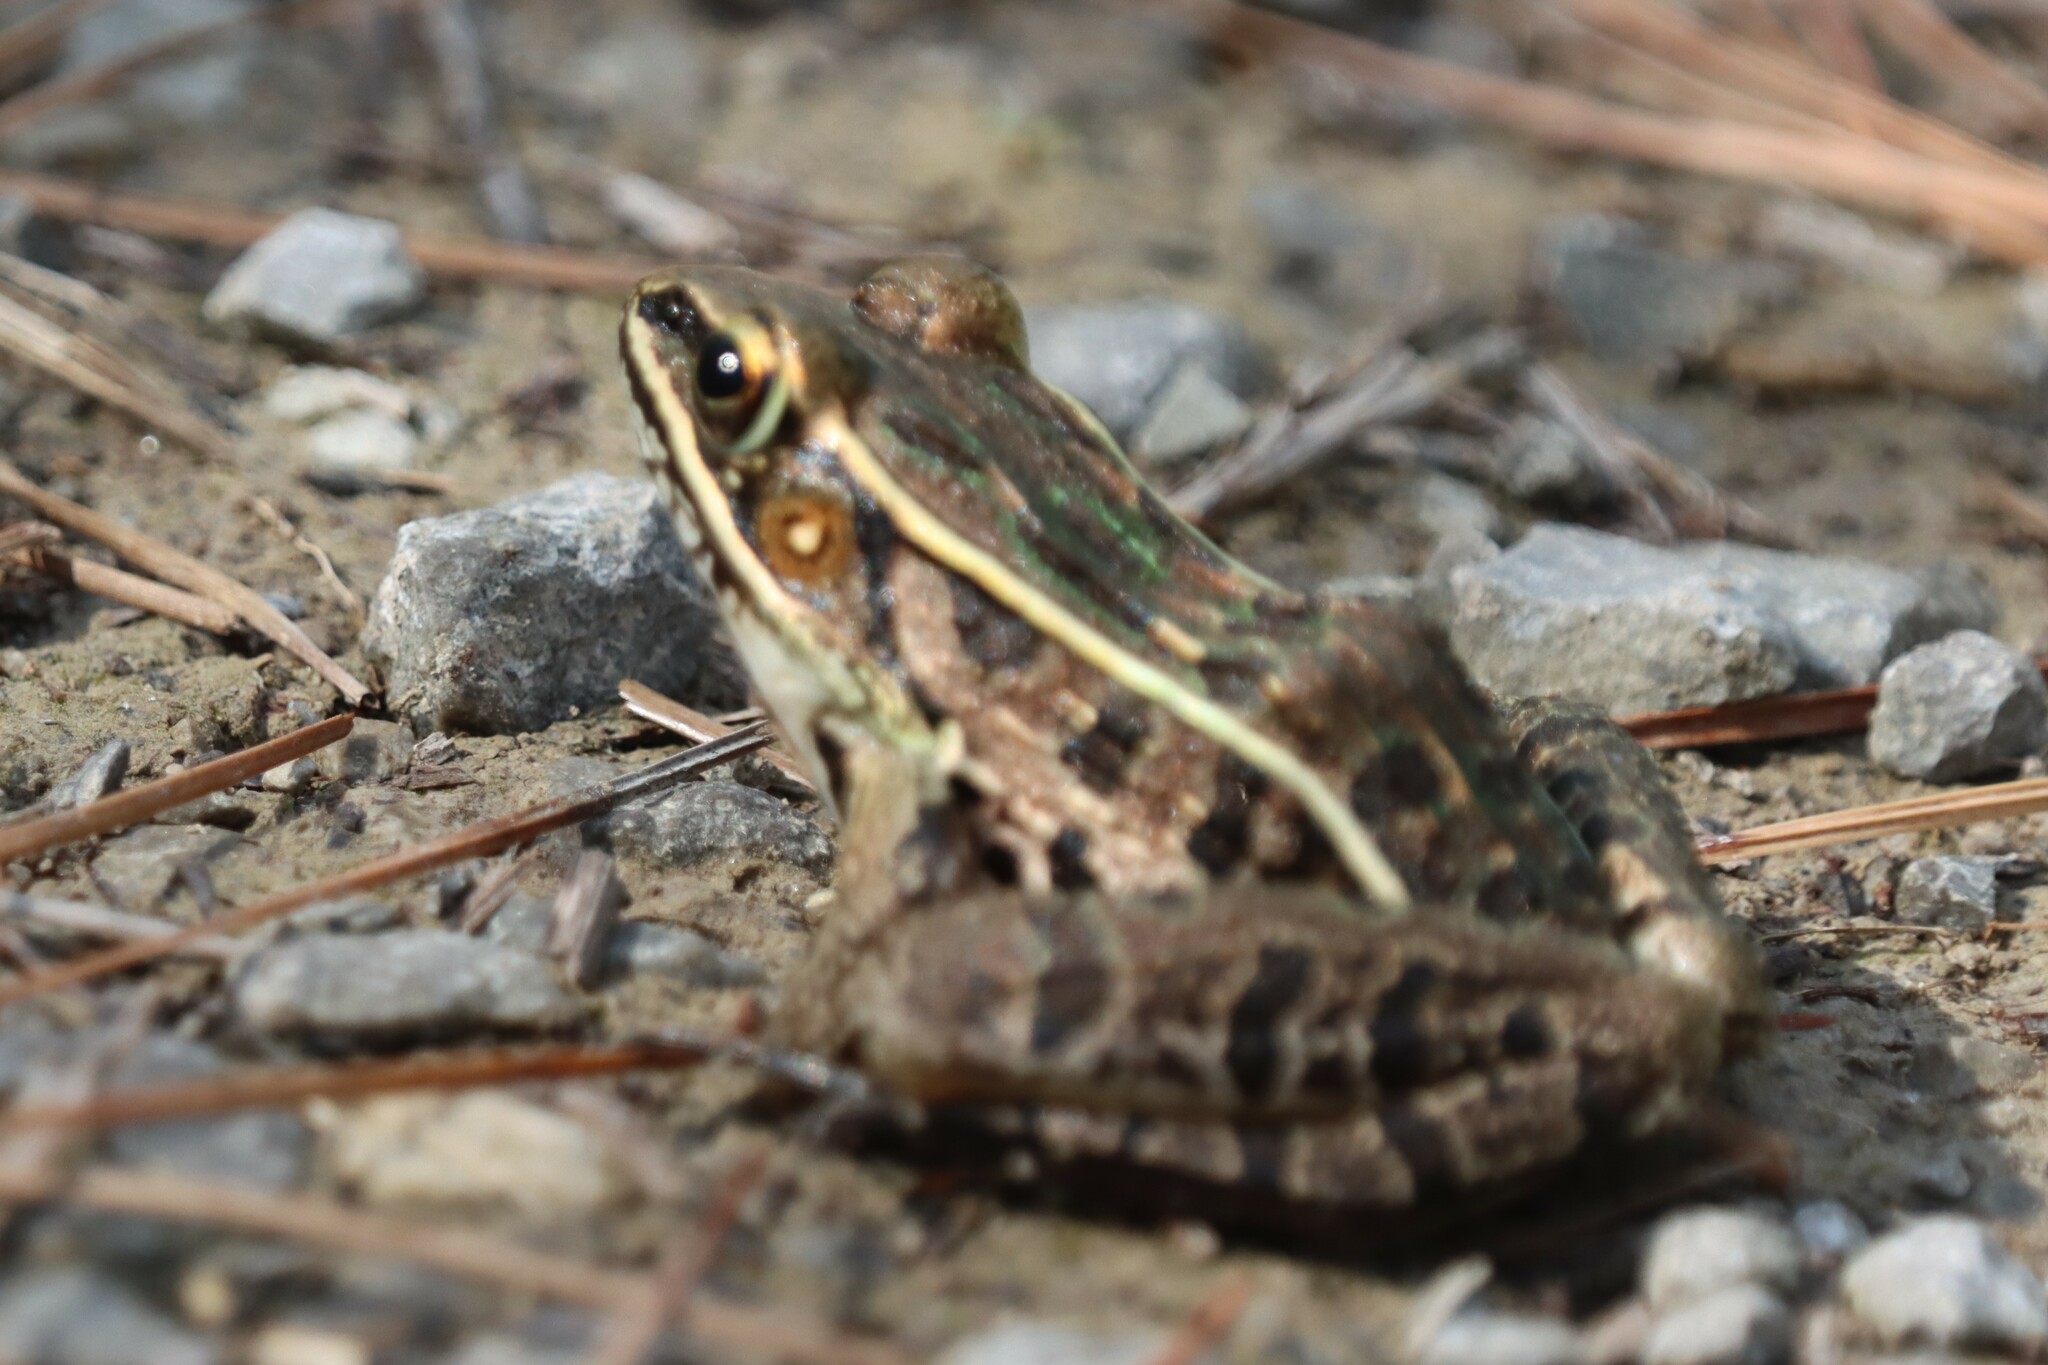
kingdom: Animalia
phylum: Chordata
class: Amphibia
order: Anura
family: Ranidae
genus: Lithobates
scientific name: Lithobates sphenocephalus
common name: Southern leopard frog
